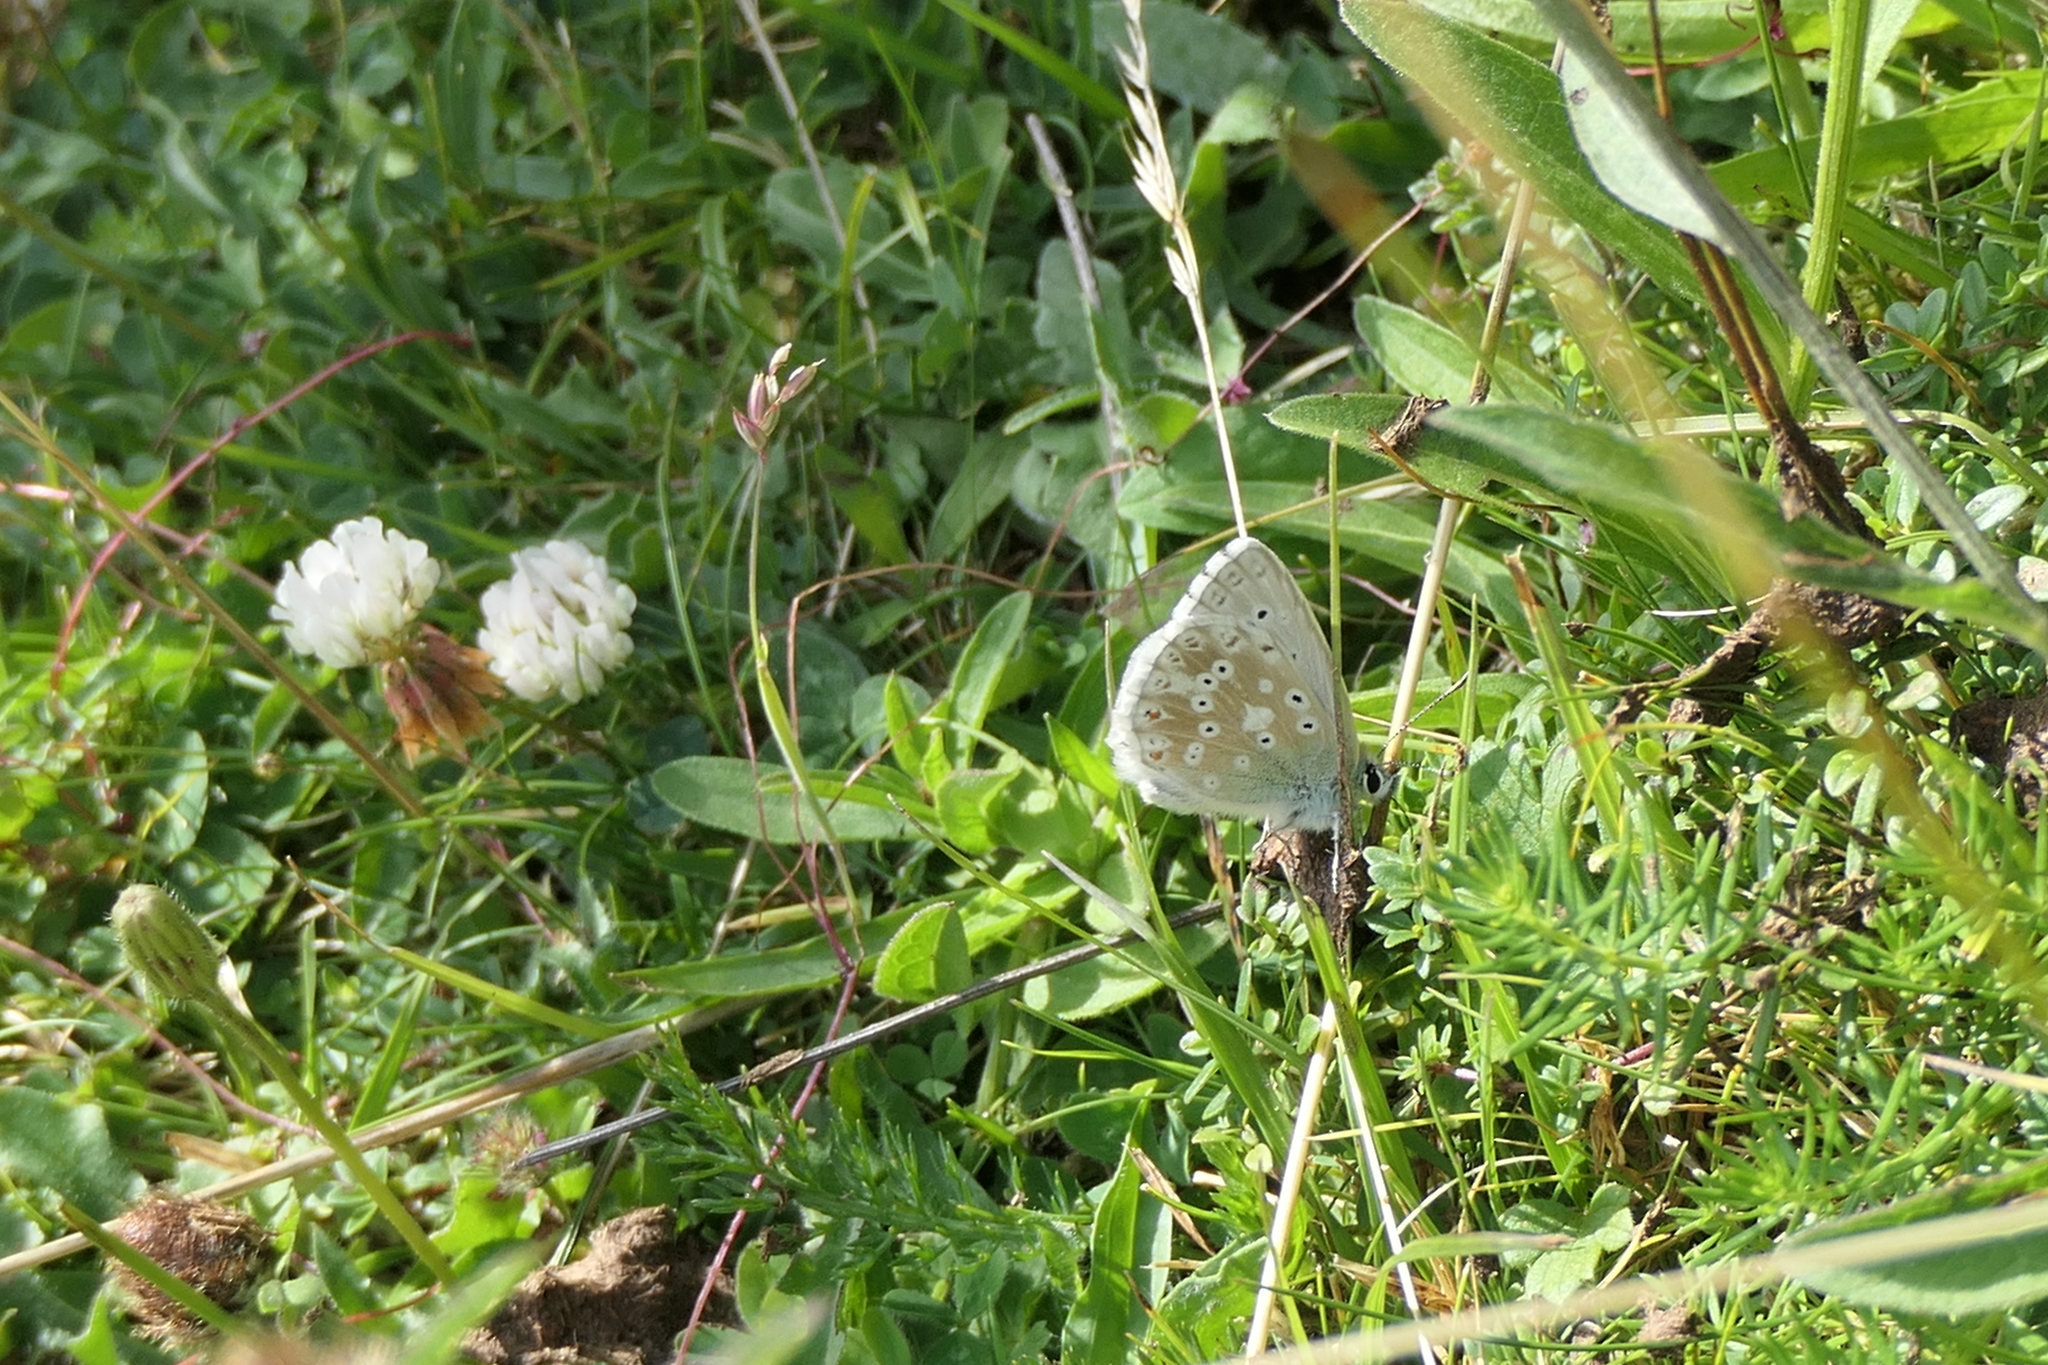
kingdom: Animalia
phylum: Arthropoda
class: Insecta
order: Lepidoptera
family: Lycaenidae
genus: Lysandra
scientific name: Lysandra coridon
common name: Chalkhill blue
